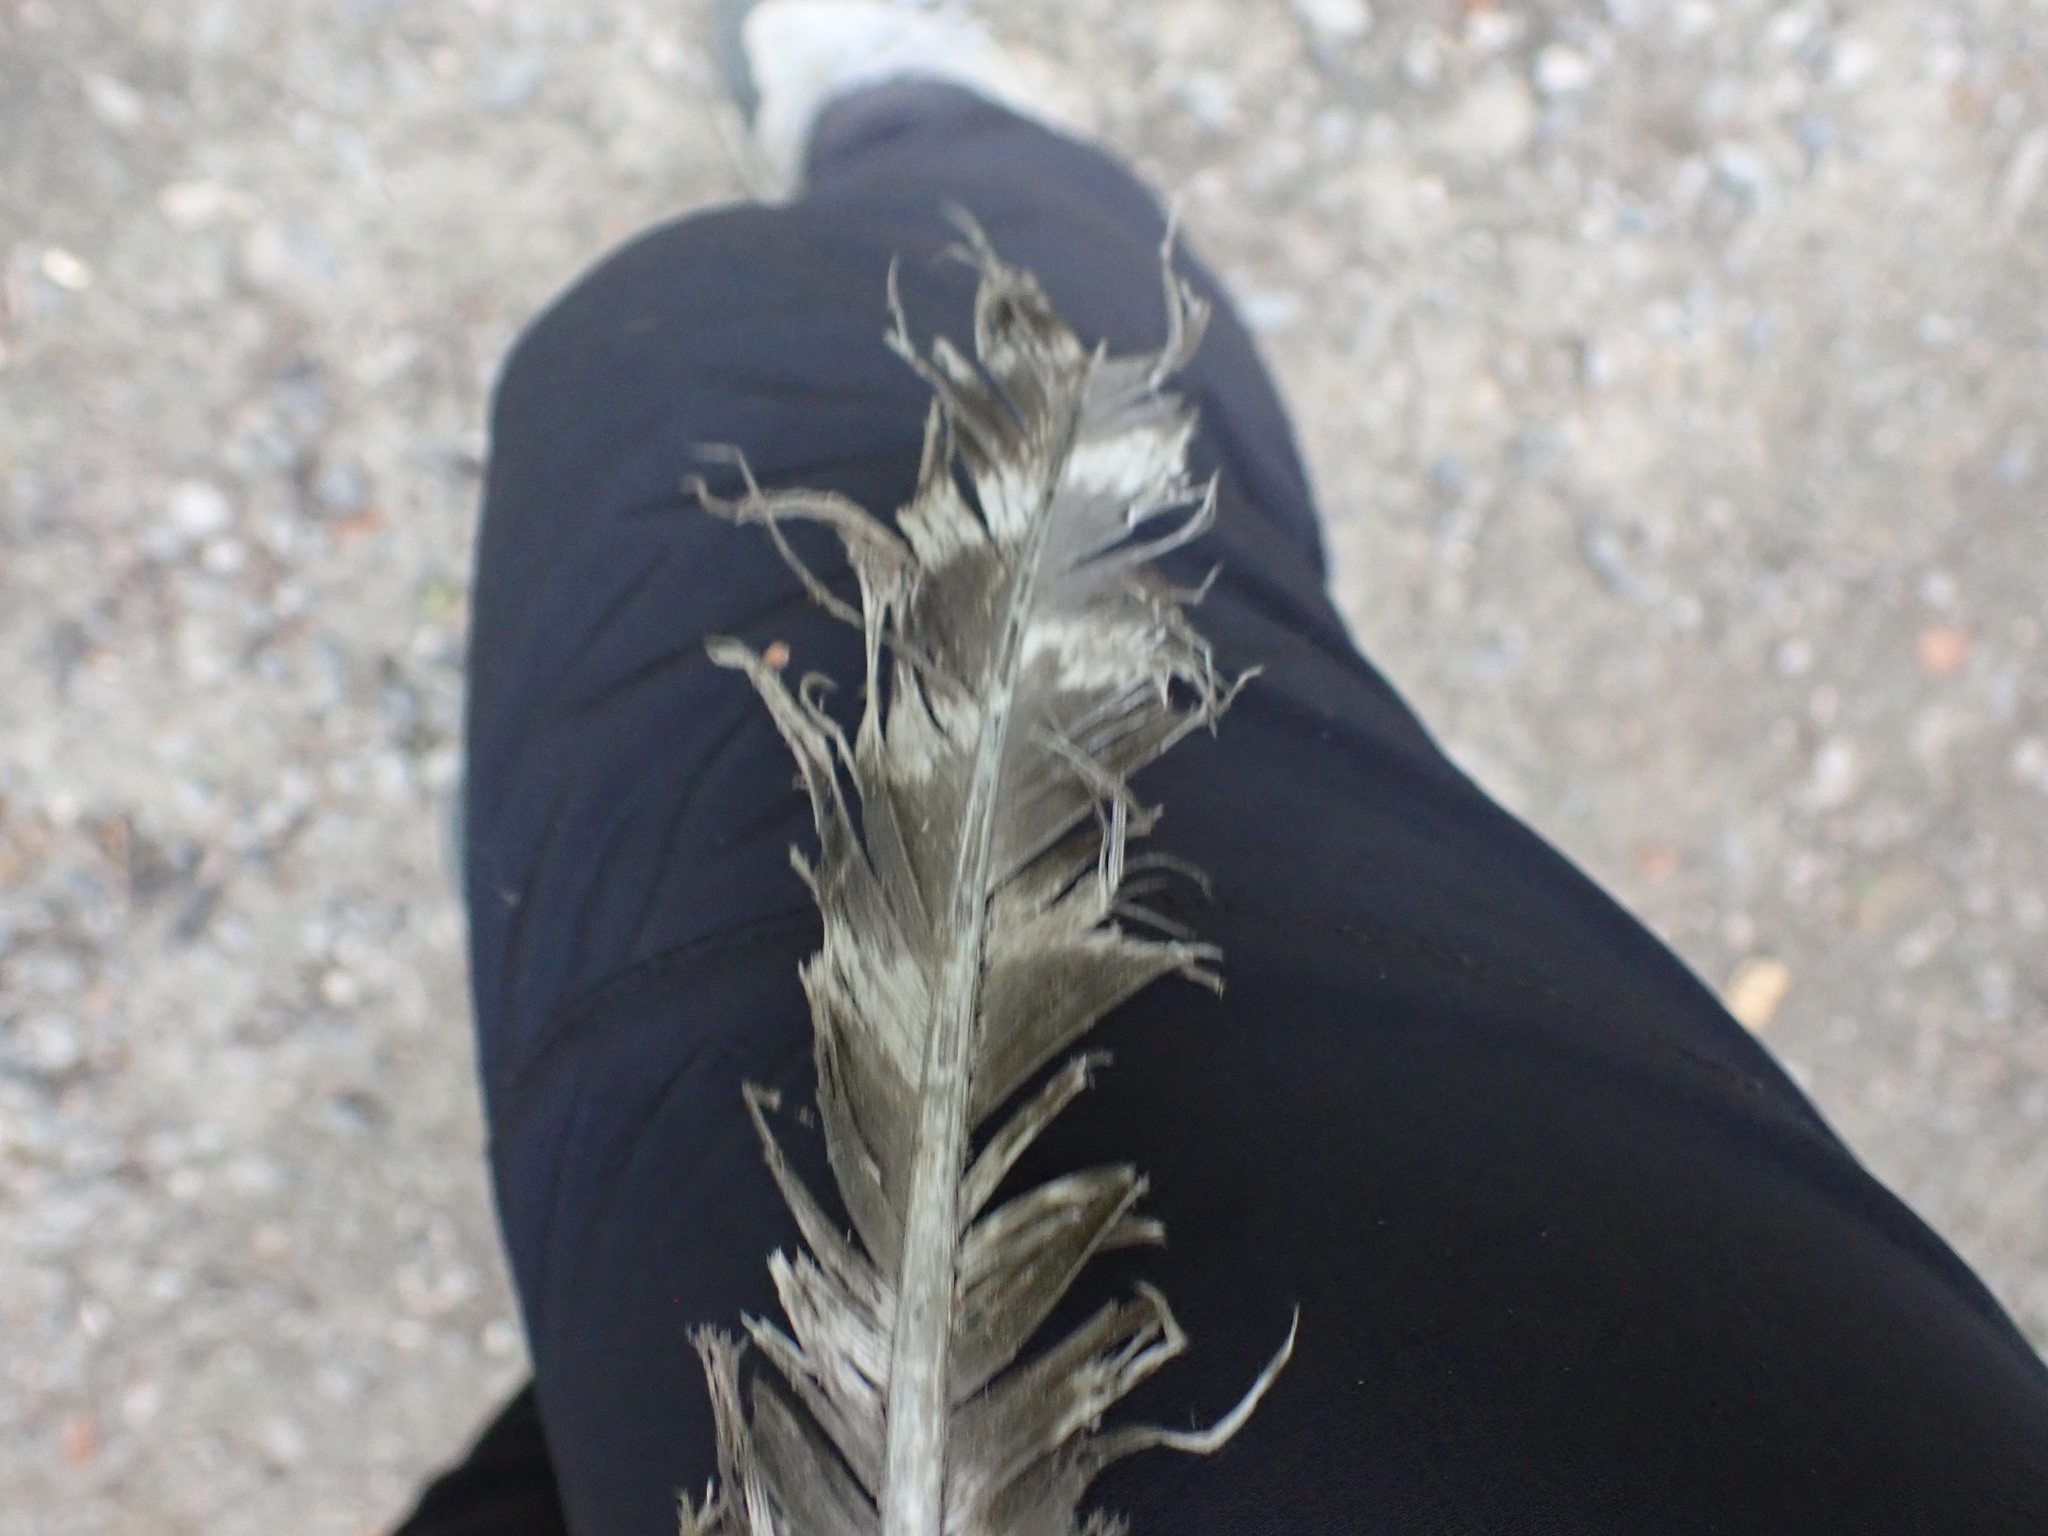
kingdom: Animalia
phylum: Chordata
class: Aves
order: Galliformes
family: Phasianidae
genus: Meleagris
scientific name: Meleagris gallopavo
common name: Wild turkey
